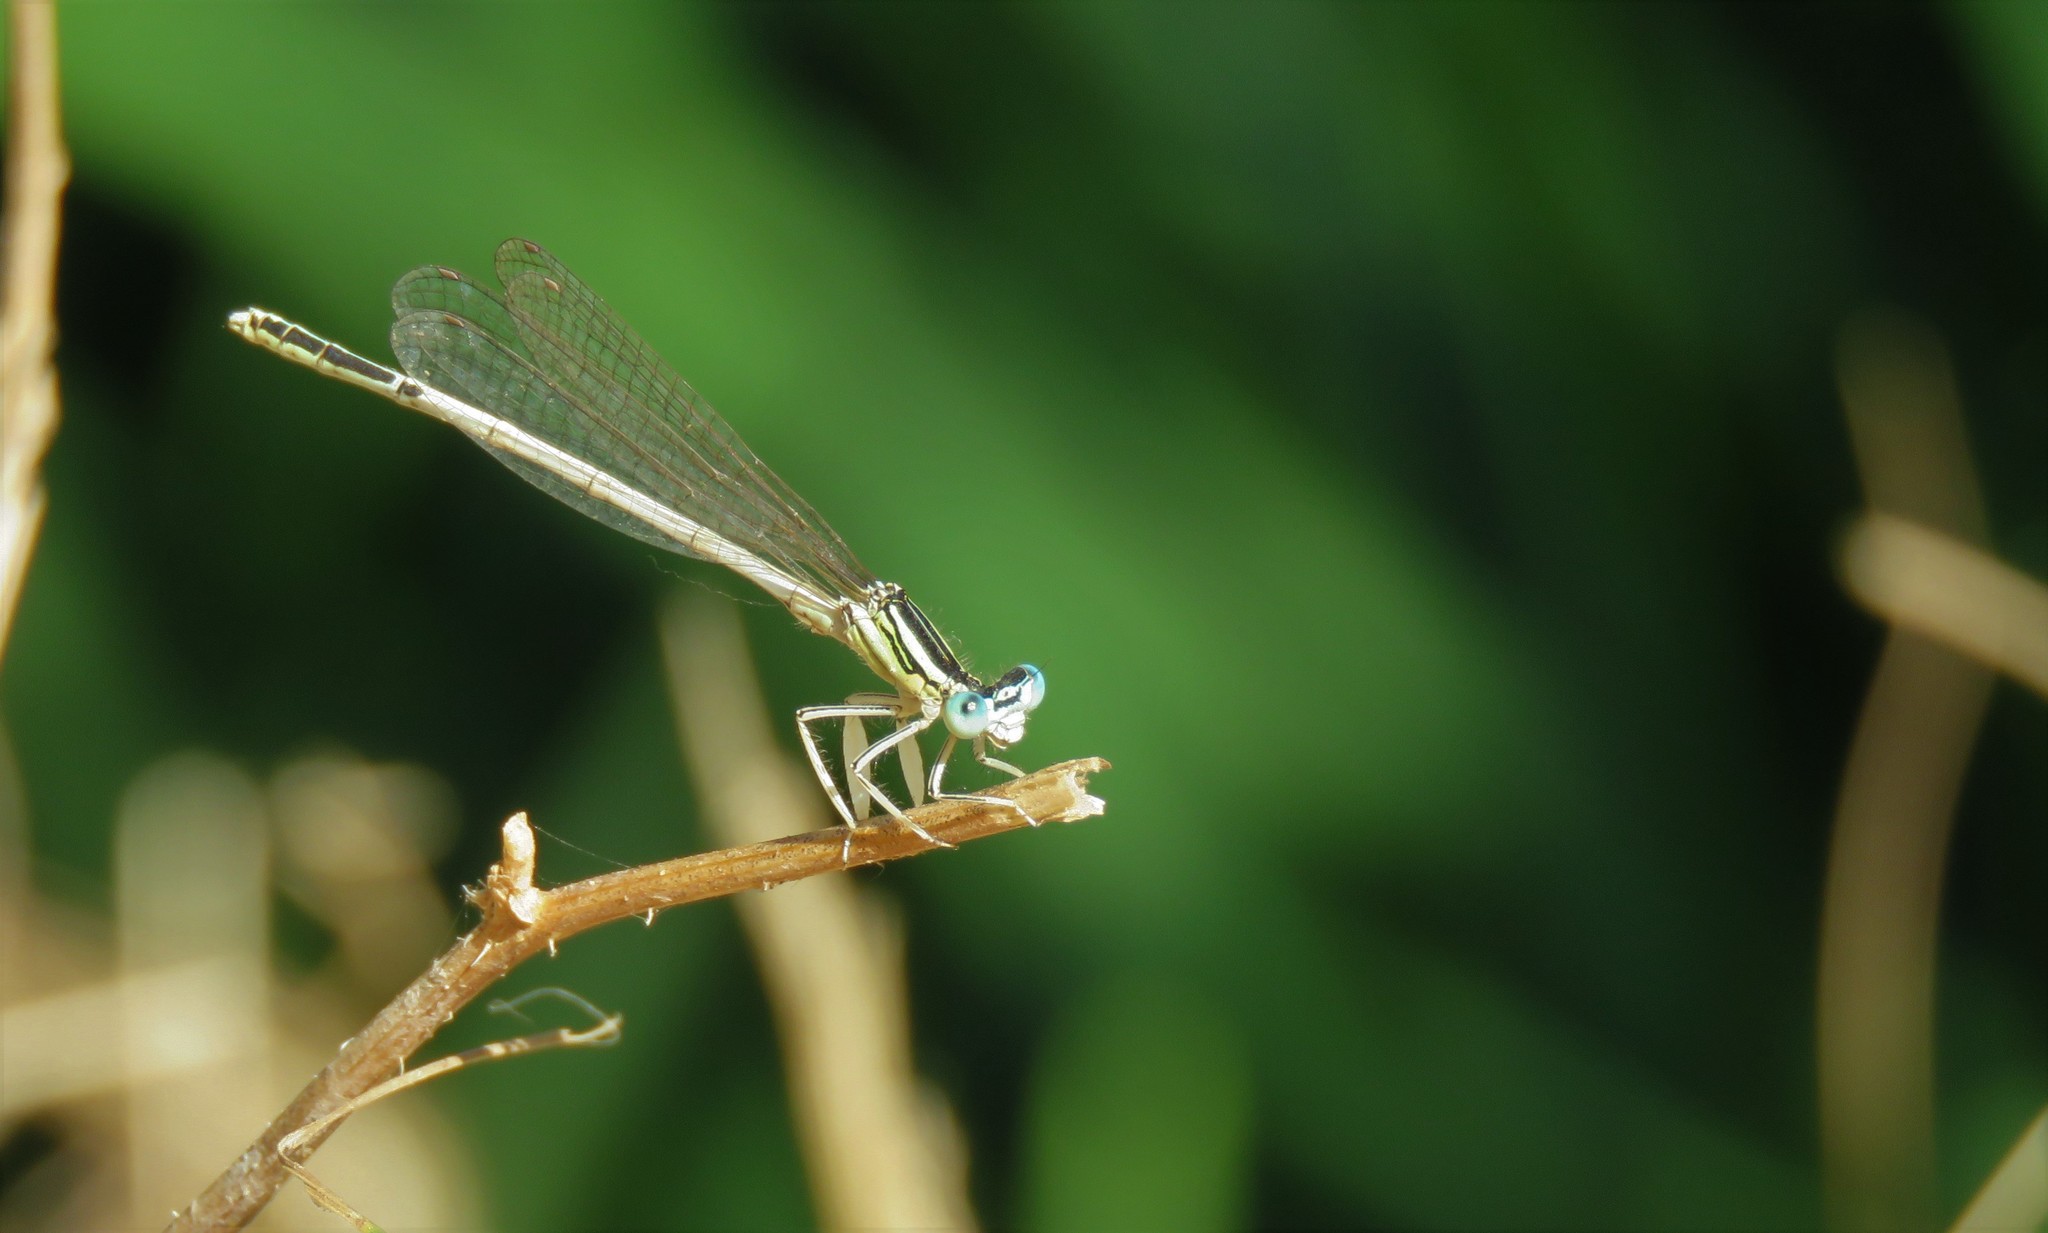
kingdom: Animalia
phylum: Arthropoda
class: Insecta
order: Odonata
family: Platycnemididae
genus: Platycnemis
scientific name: Platycnemis latipes
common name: White featherleg
